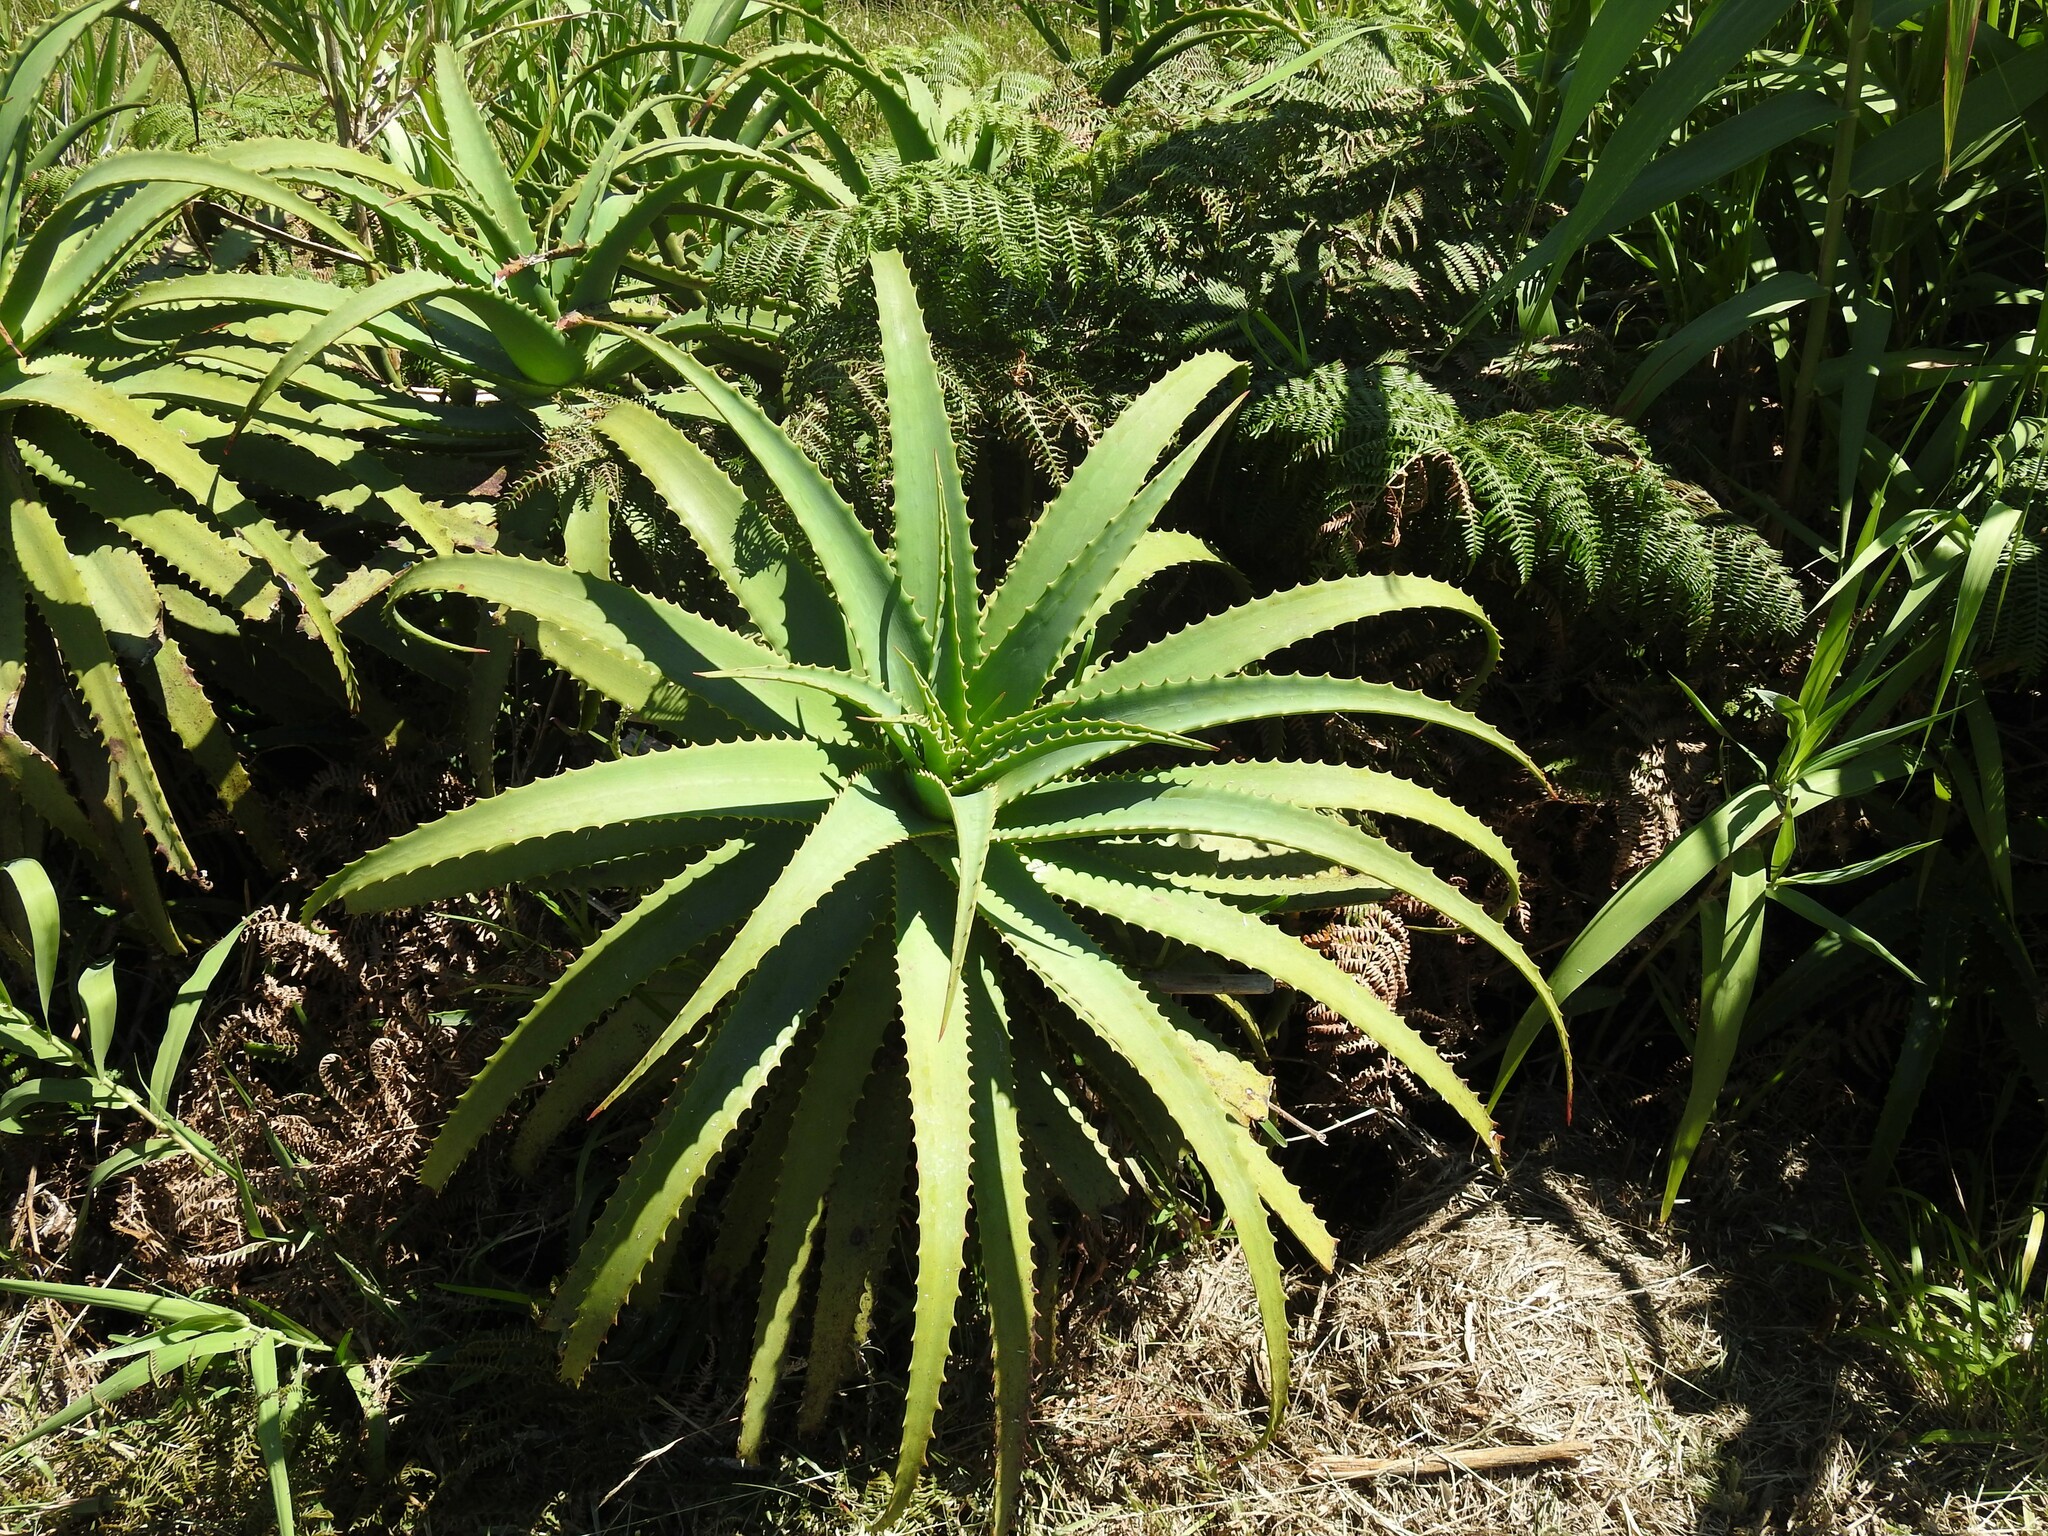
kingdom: Plantae
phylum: Tracheophyta
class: Liliopsida
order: Asparagales
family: Asphodelaceae
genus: Aloe
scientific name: Aloe arborescens
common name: Candelabra aloe
